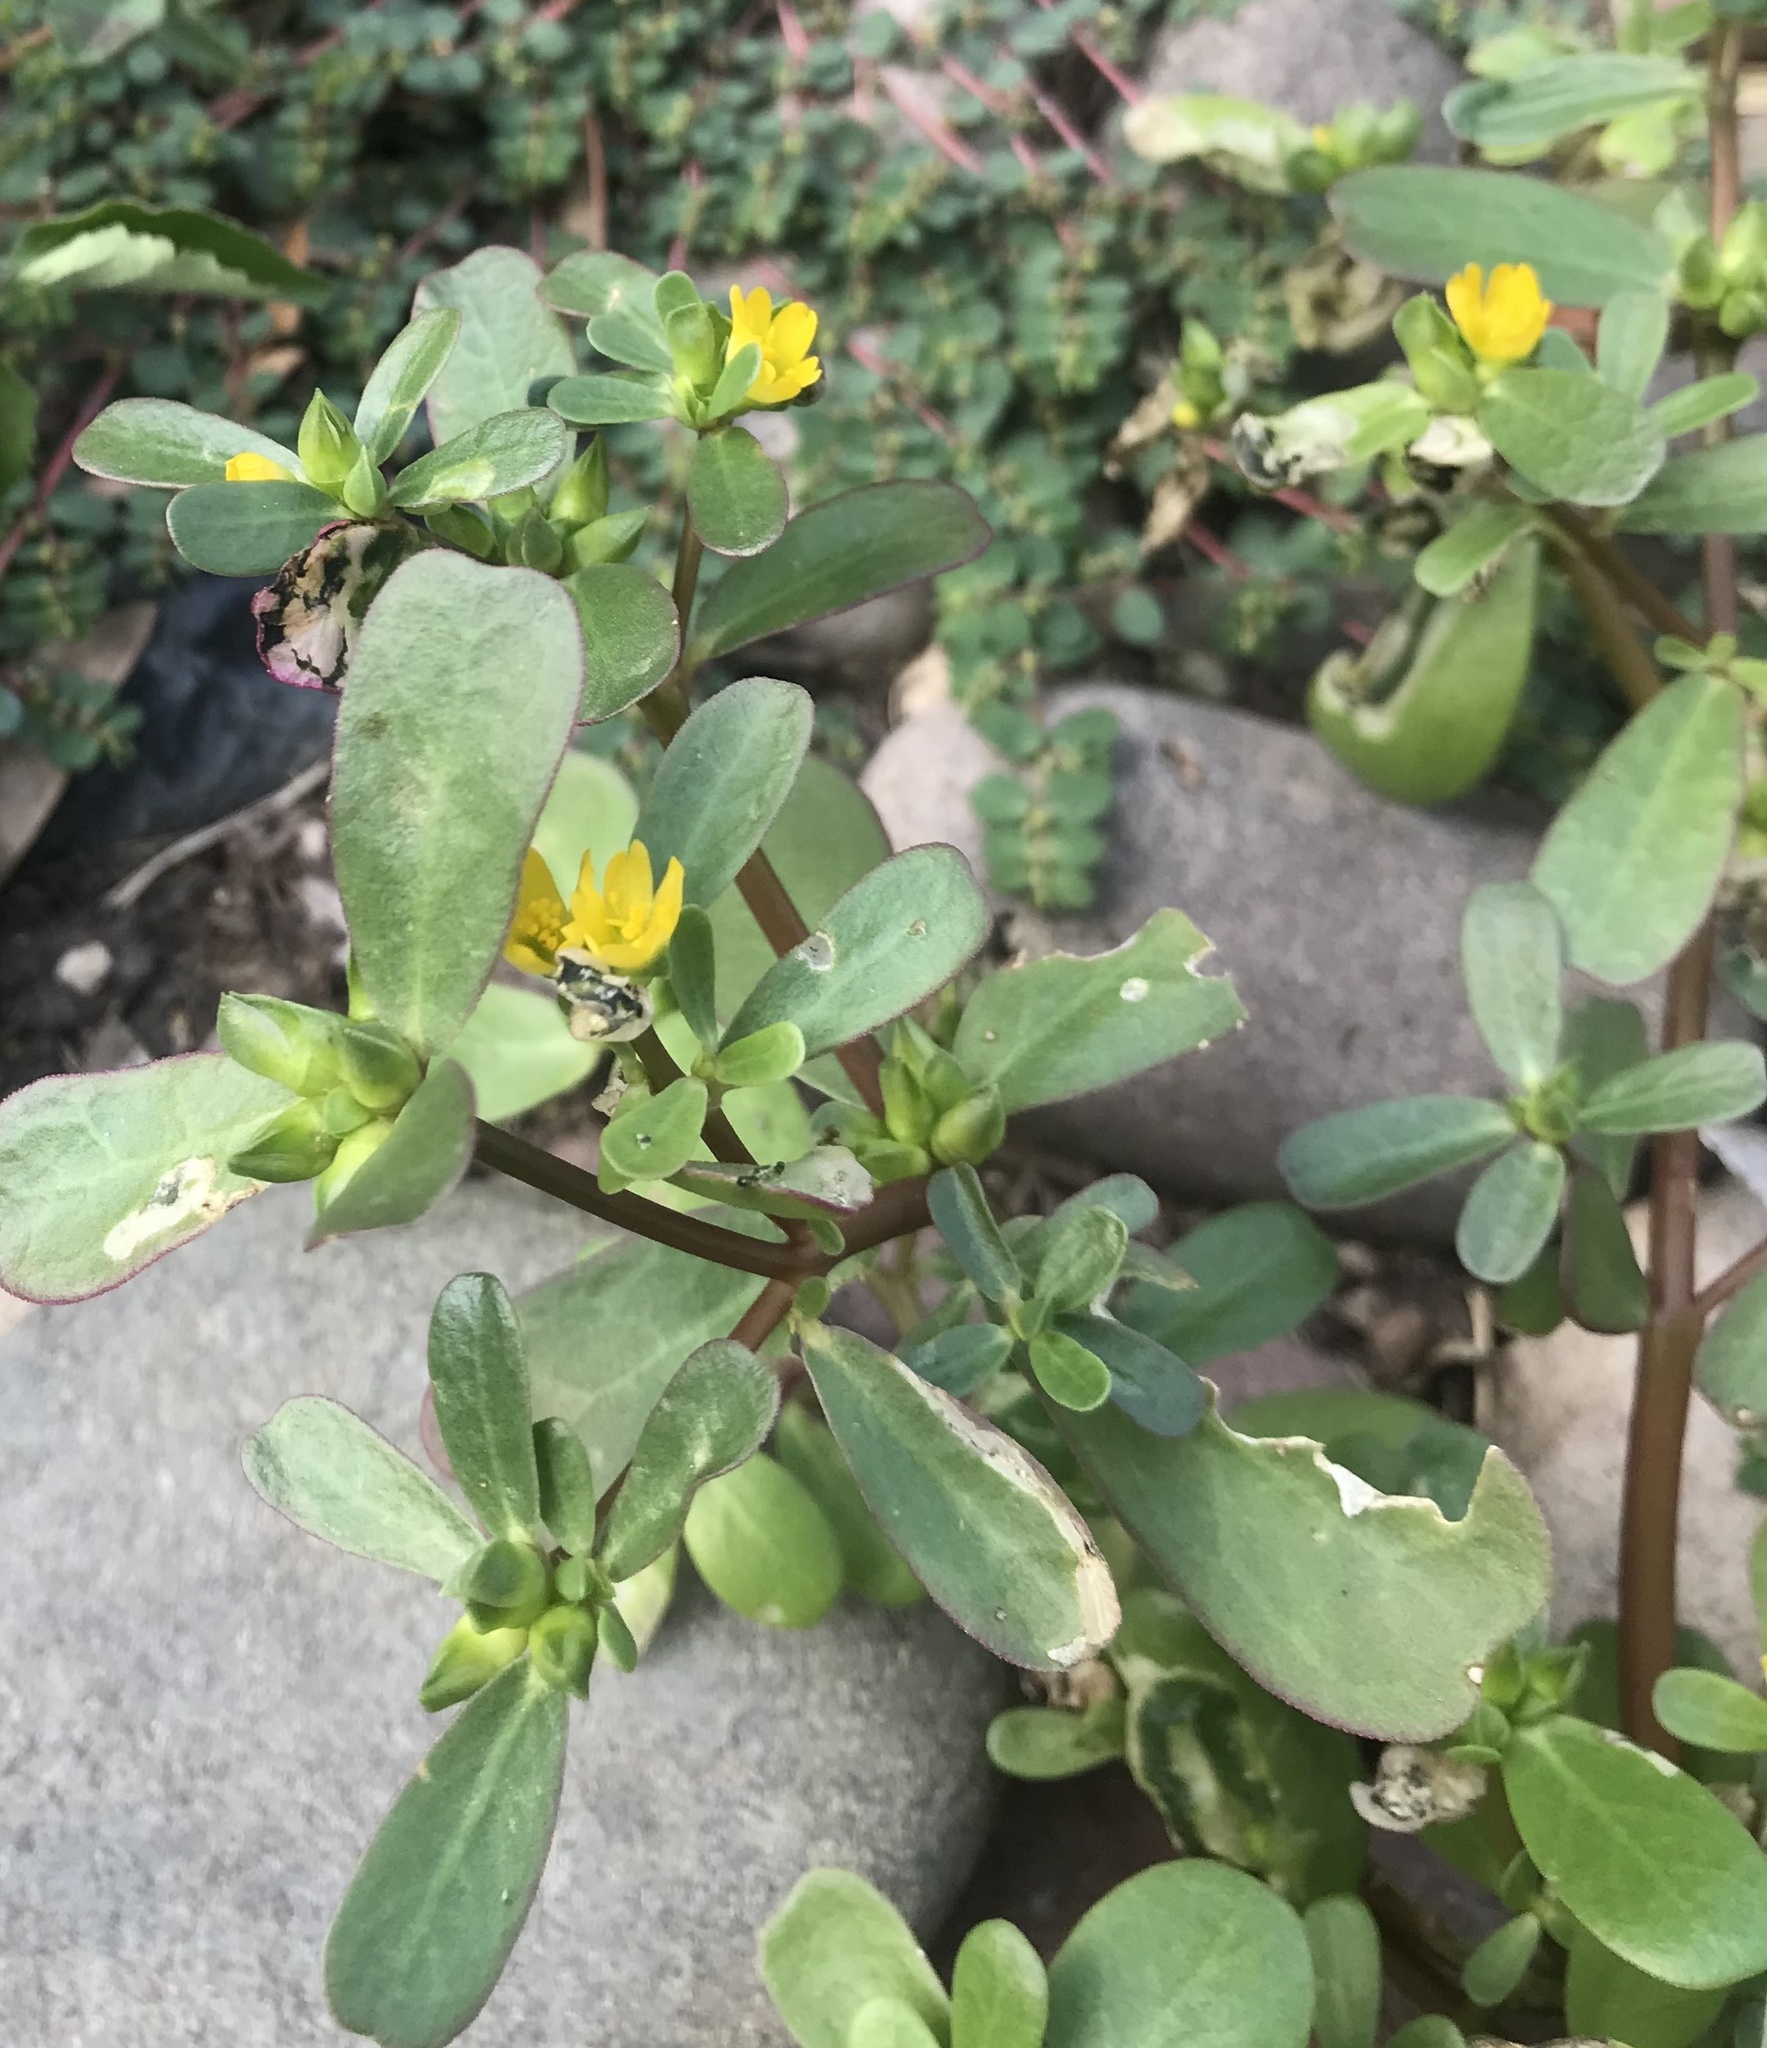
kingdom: Plantae
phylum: Tracheophyta
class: Magnoliopsida
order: Caryophyllales
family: Portulacaceae
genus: Portulaca
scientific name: Portulaca oleracea
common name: Common purslane
